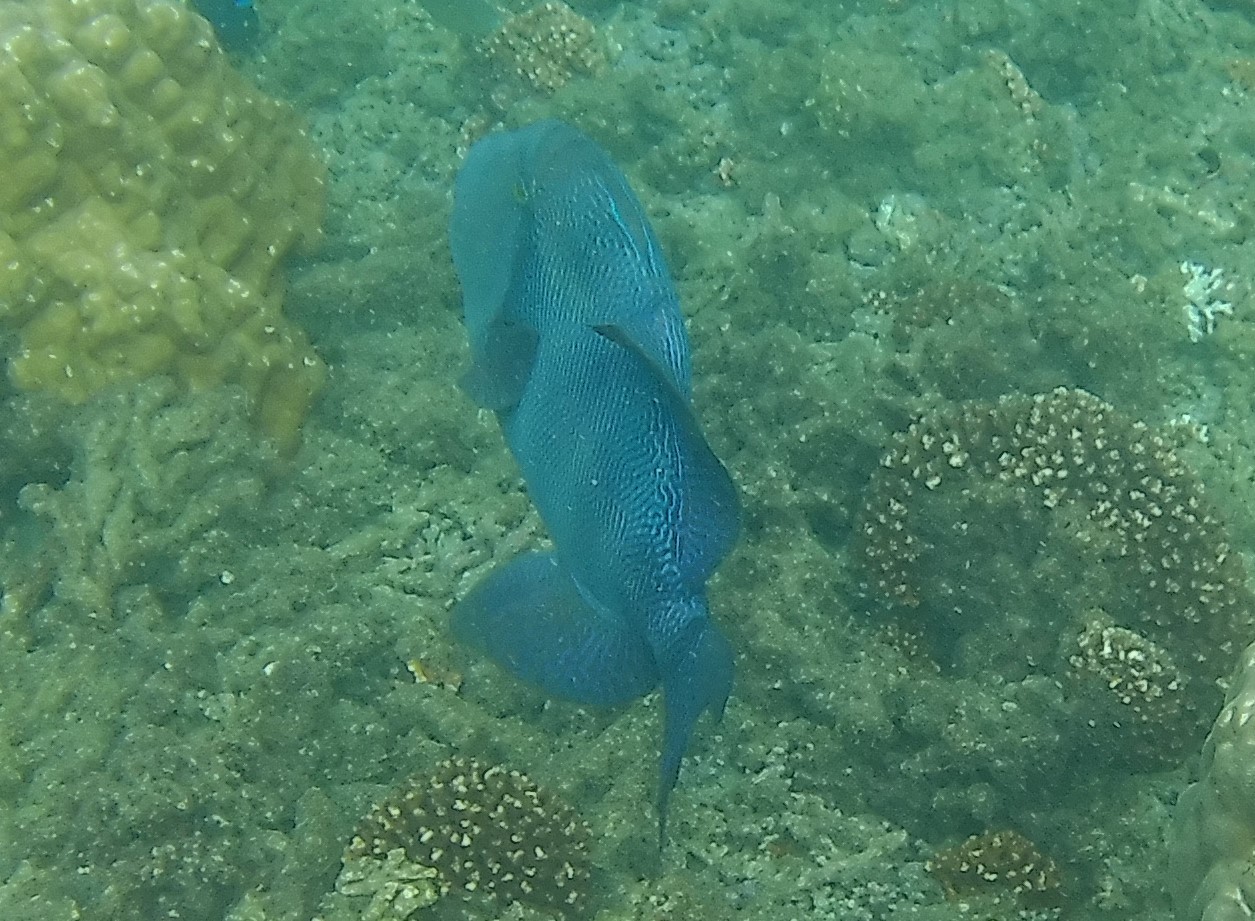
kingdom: Animalia
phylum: Chordata
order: Tetraodontiformes
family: Balistidae
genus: Pseudobalistes
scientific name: Pseudobalistes naufragium
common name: Blunthead triggerfish
